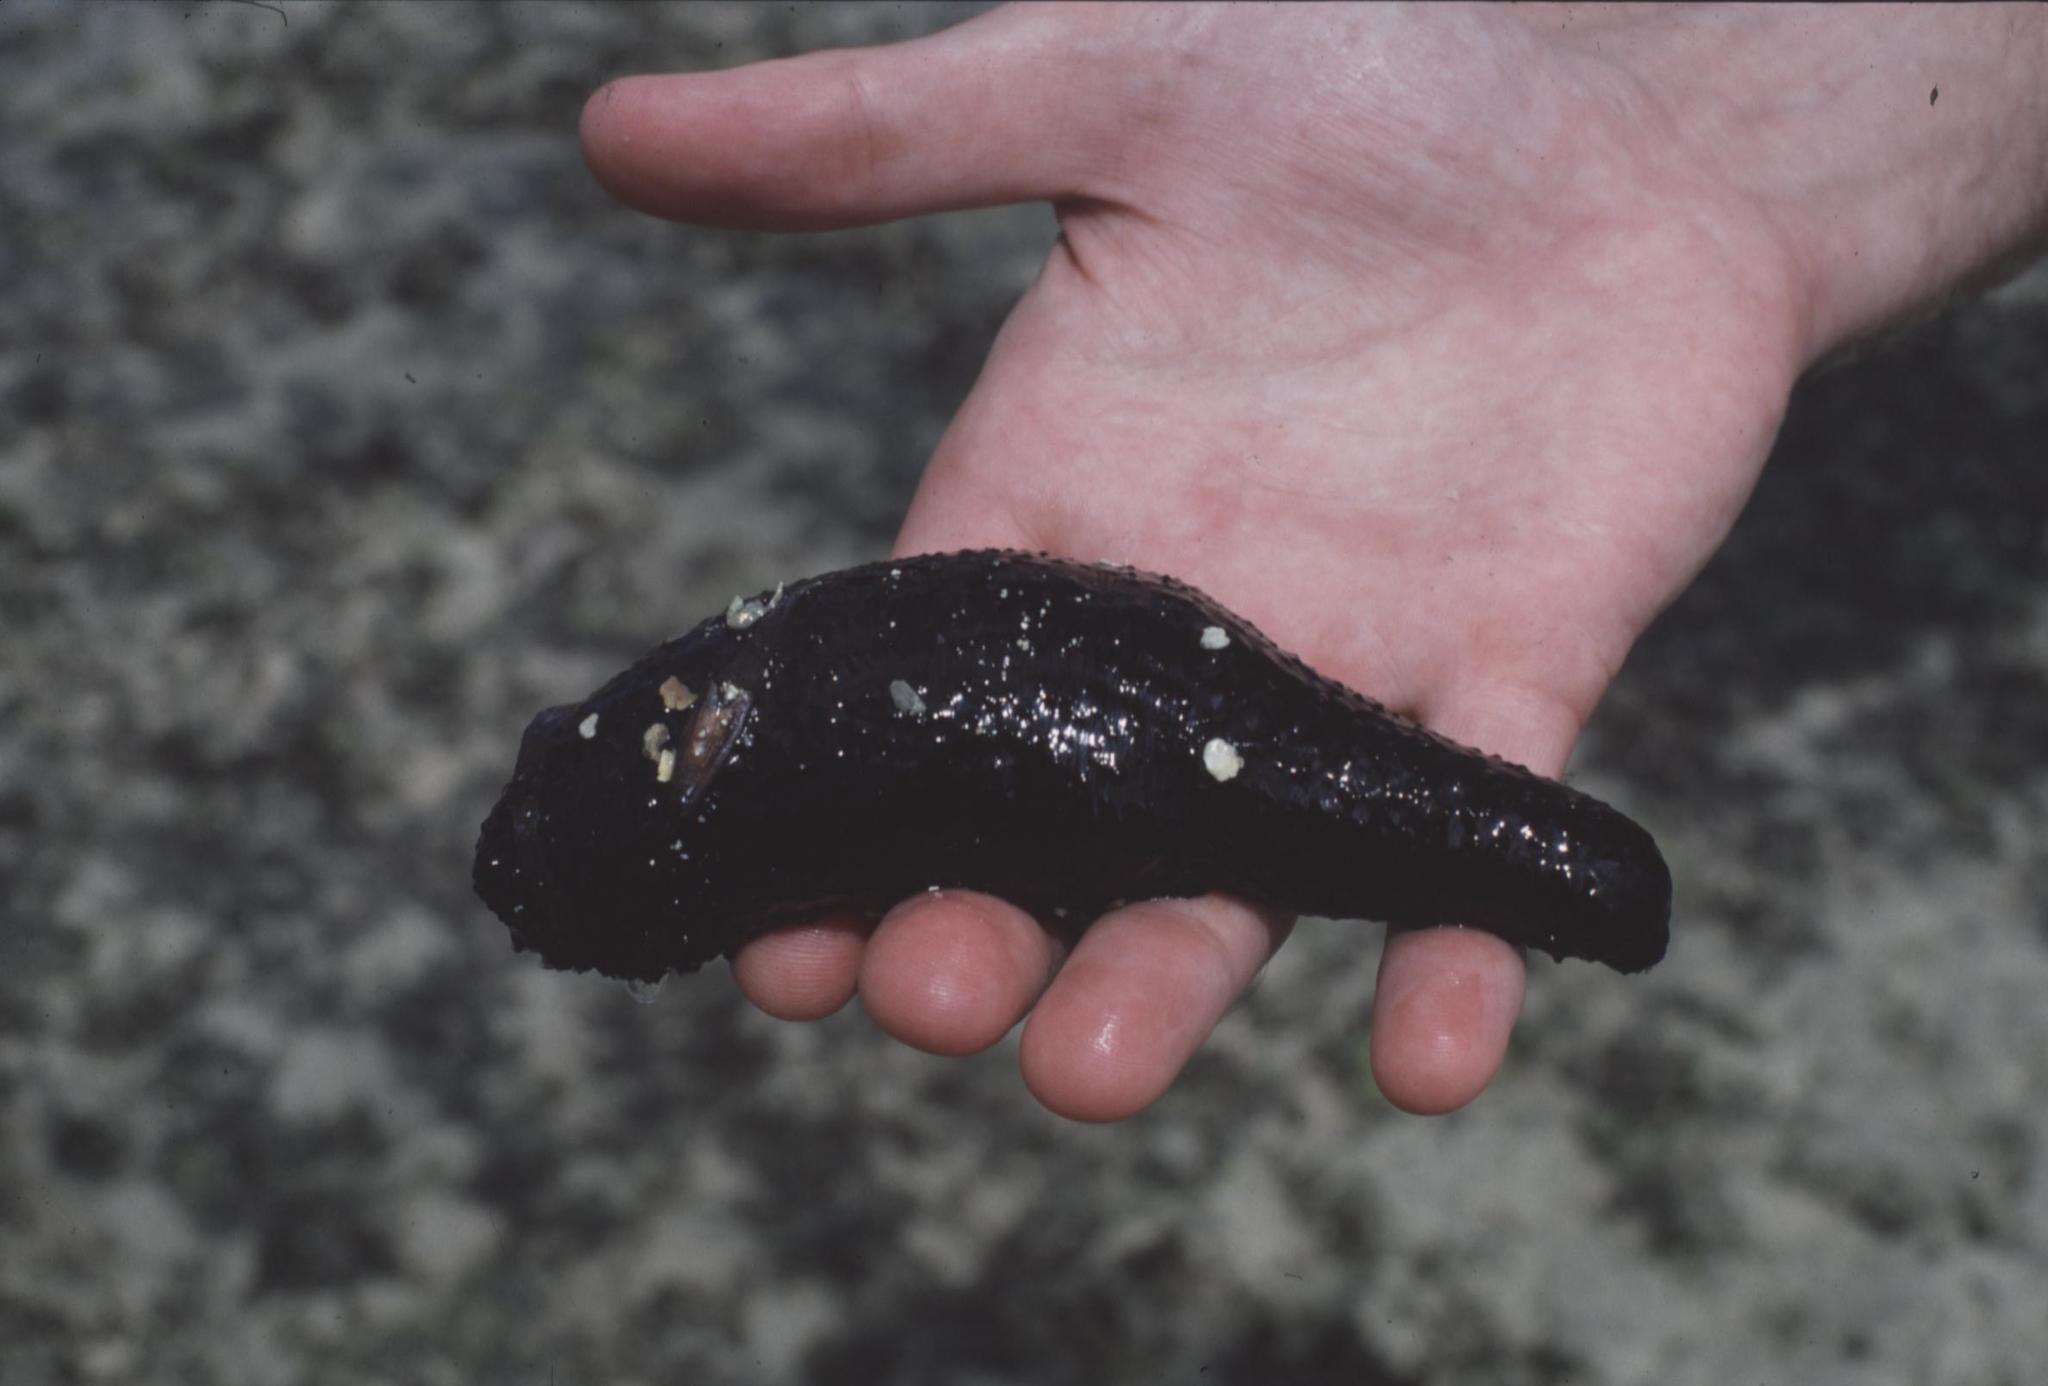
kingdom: Animalia
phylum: Echinodermata
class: Holothuroidea
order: Holothuriida
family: Holothuriidae
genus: Holothuria
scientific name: Holothuria atra
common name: Lollyfish
